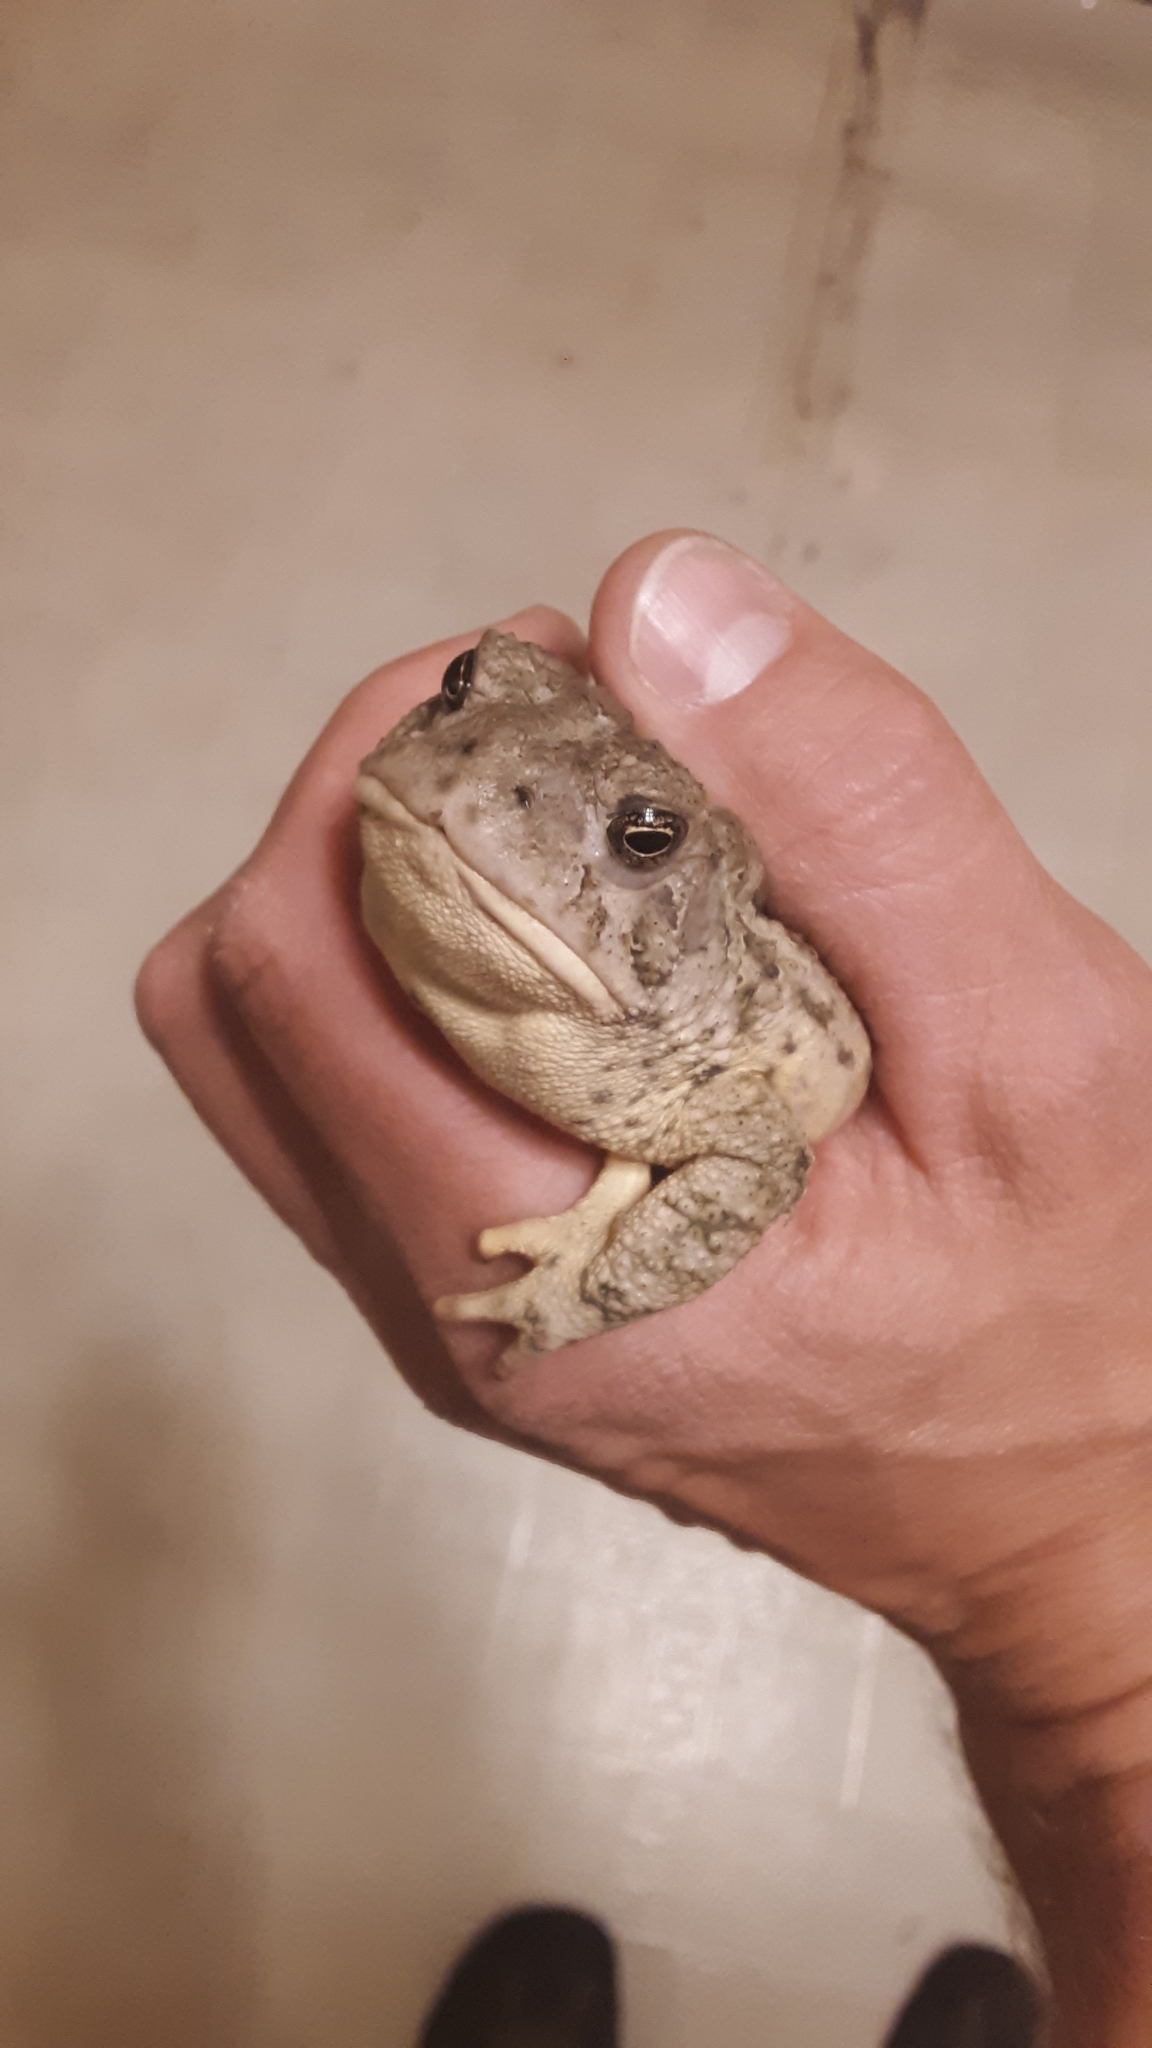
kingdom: Animalia
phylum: Chordata
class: Amphibia
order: Anura
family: Bufonidae
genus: Anaxyrus
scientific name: Anaxyrus woodhousii
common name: Woodhouse's toad
